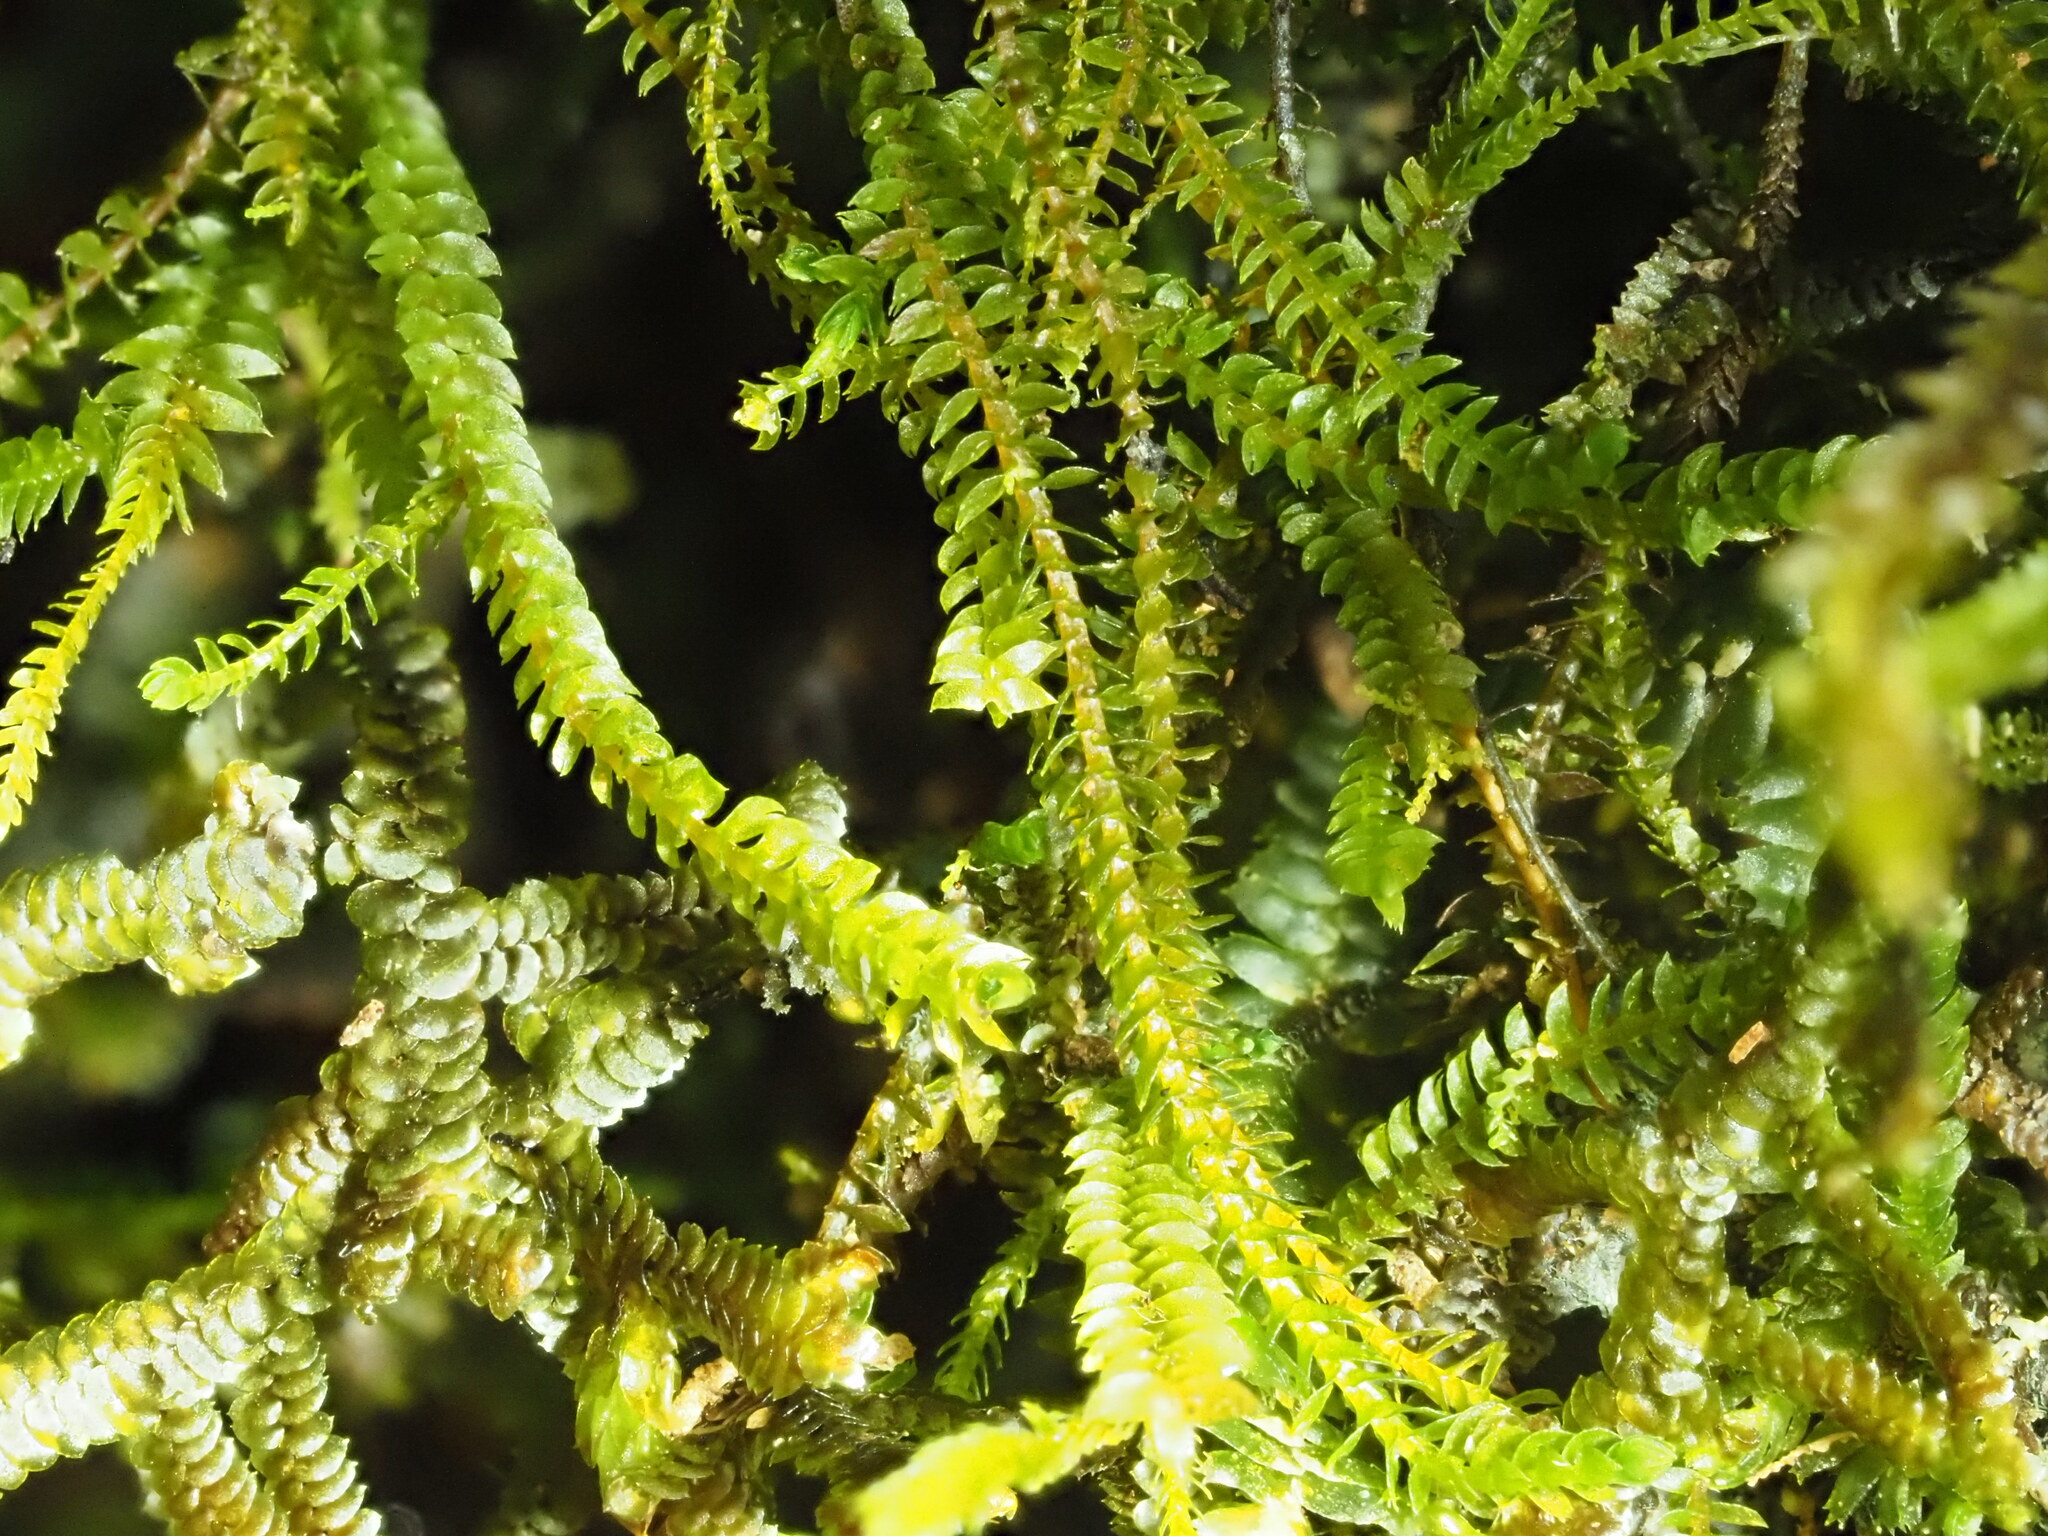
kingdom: Plantae
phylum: Marchantiophyta
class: Jungermanniopsida
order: Jungermanniales
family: Herbertaceae
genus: Herbertus
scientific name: Herbertus gracilis
